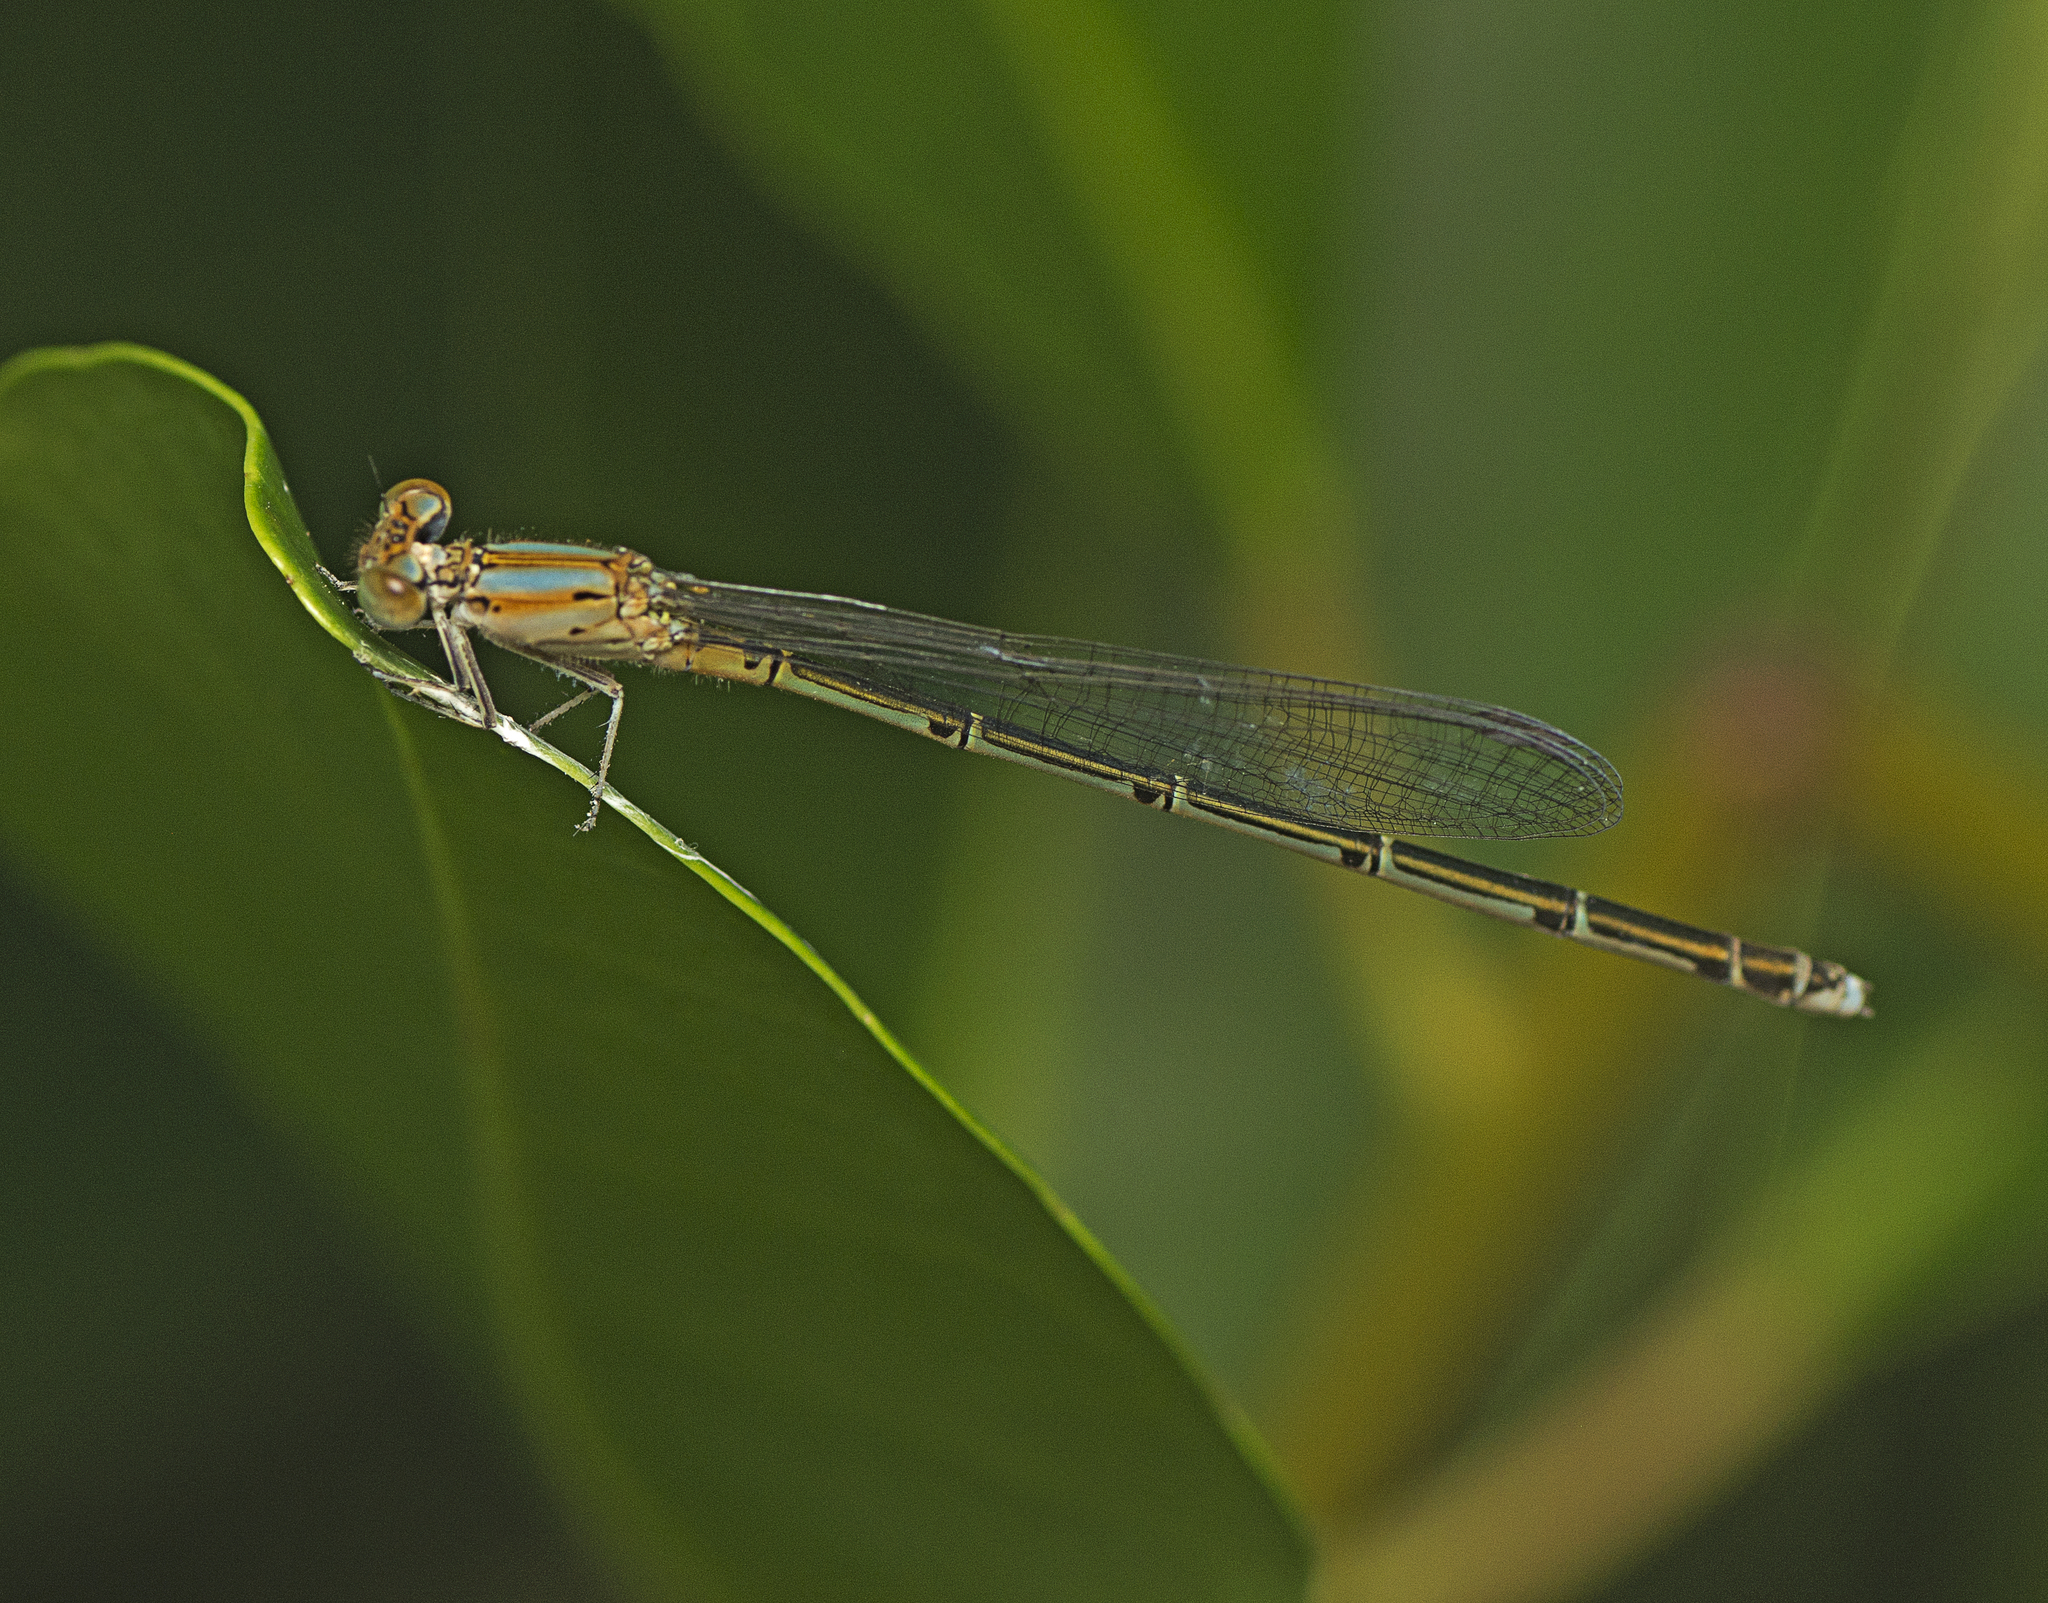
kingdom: Animalia
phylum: Arthropoda
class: Insecta
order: Odonata
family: Coenagrionidae
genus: Pseudagrion
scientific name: Pseudagrion microcephalum
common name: Blue riverdamsel
